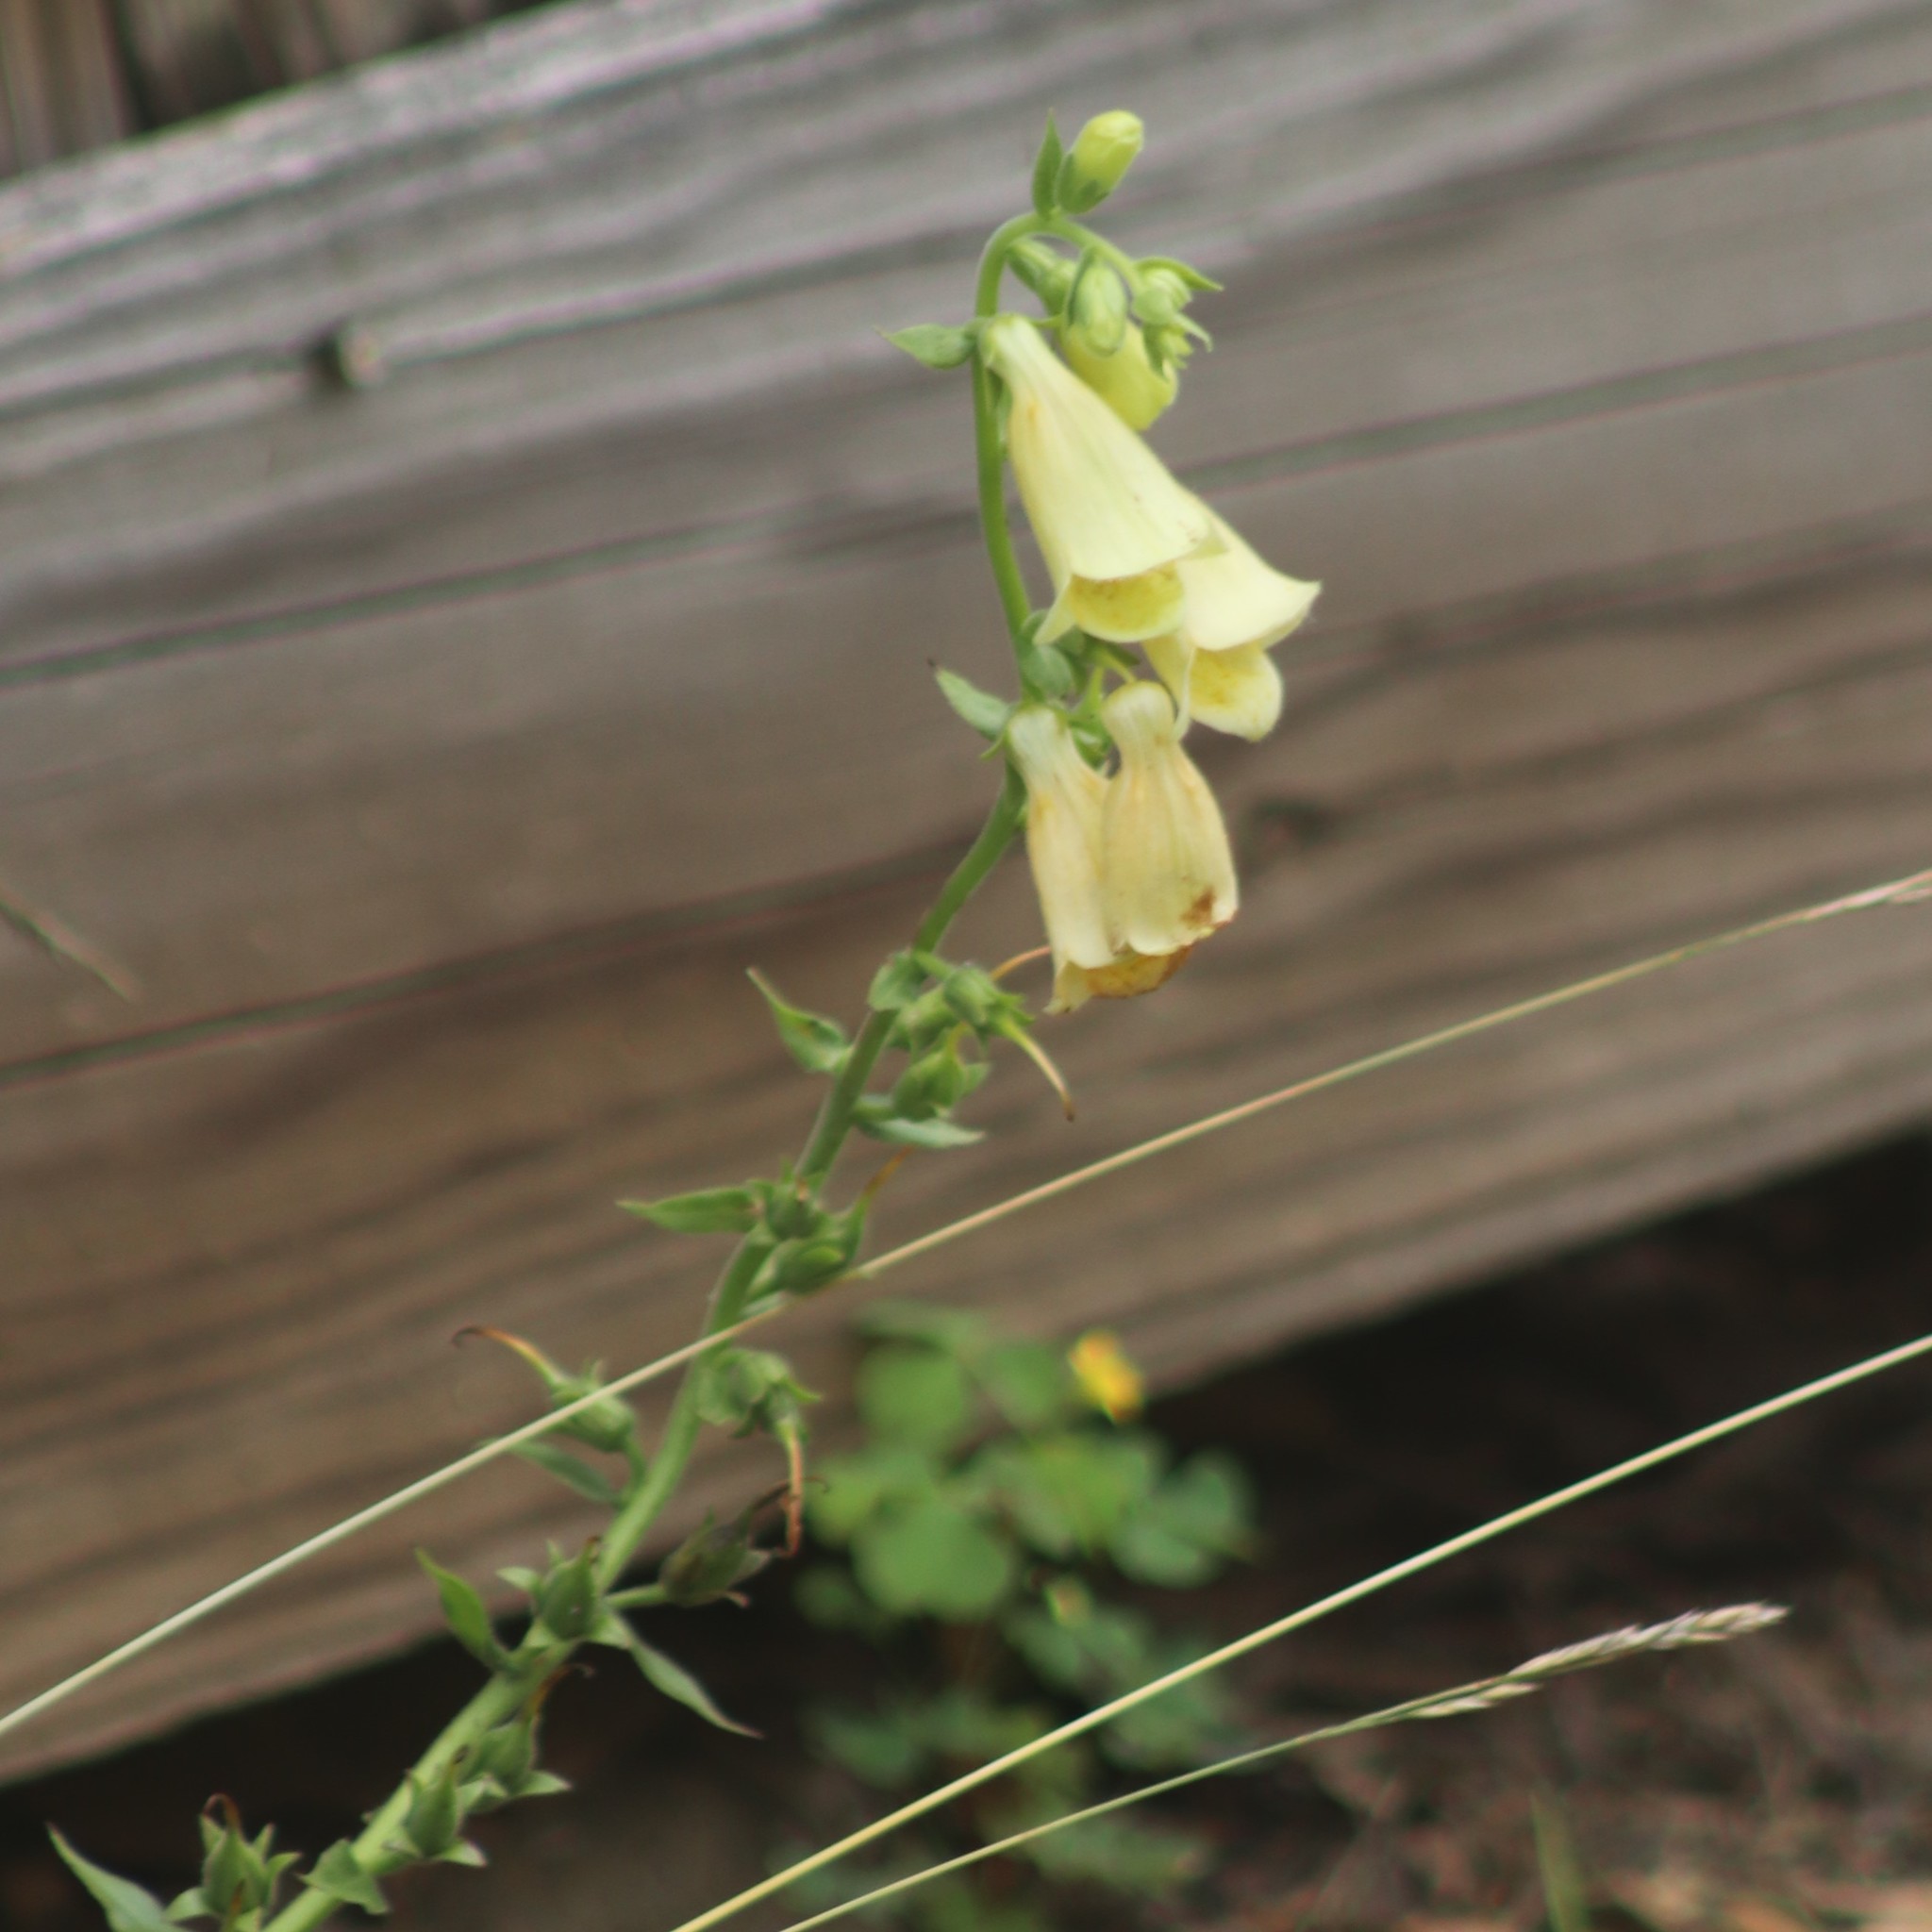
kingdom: Plantae
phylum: Tracheophyta
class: Magnoliopsida
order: Lamiales
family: Plantaginaceae
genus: Digitalis
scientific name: Digitalis grandiflora
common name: Yellow foxglove
